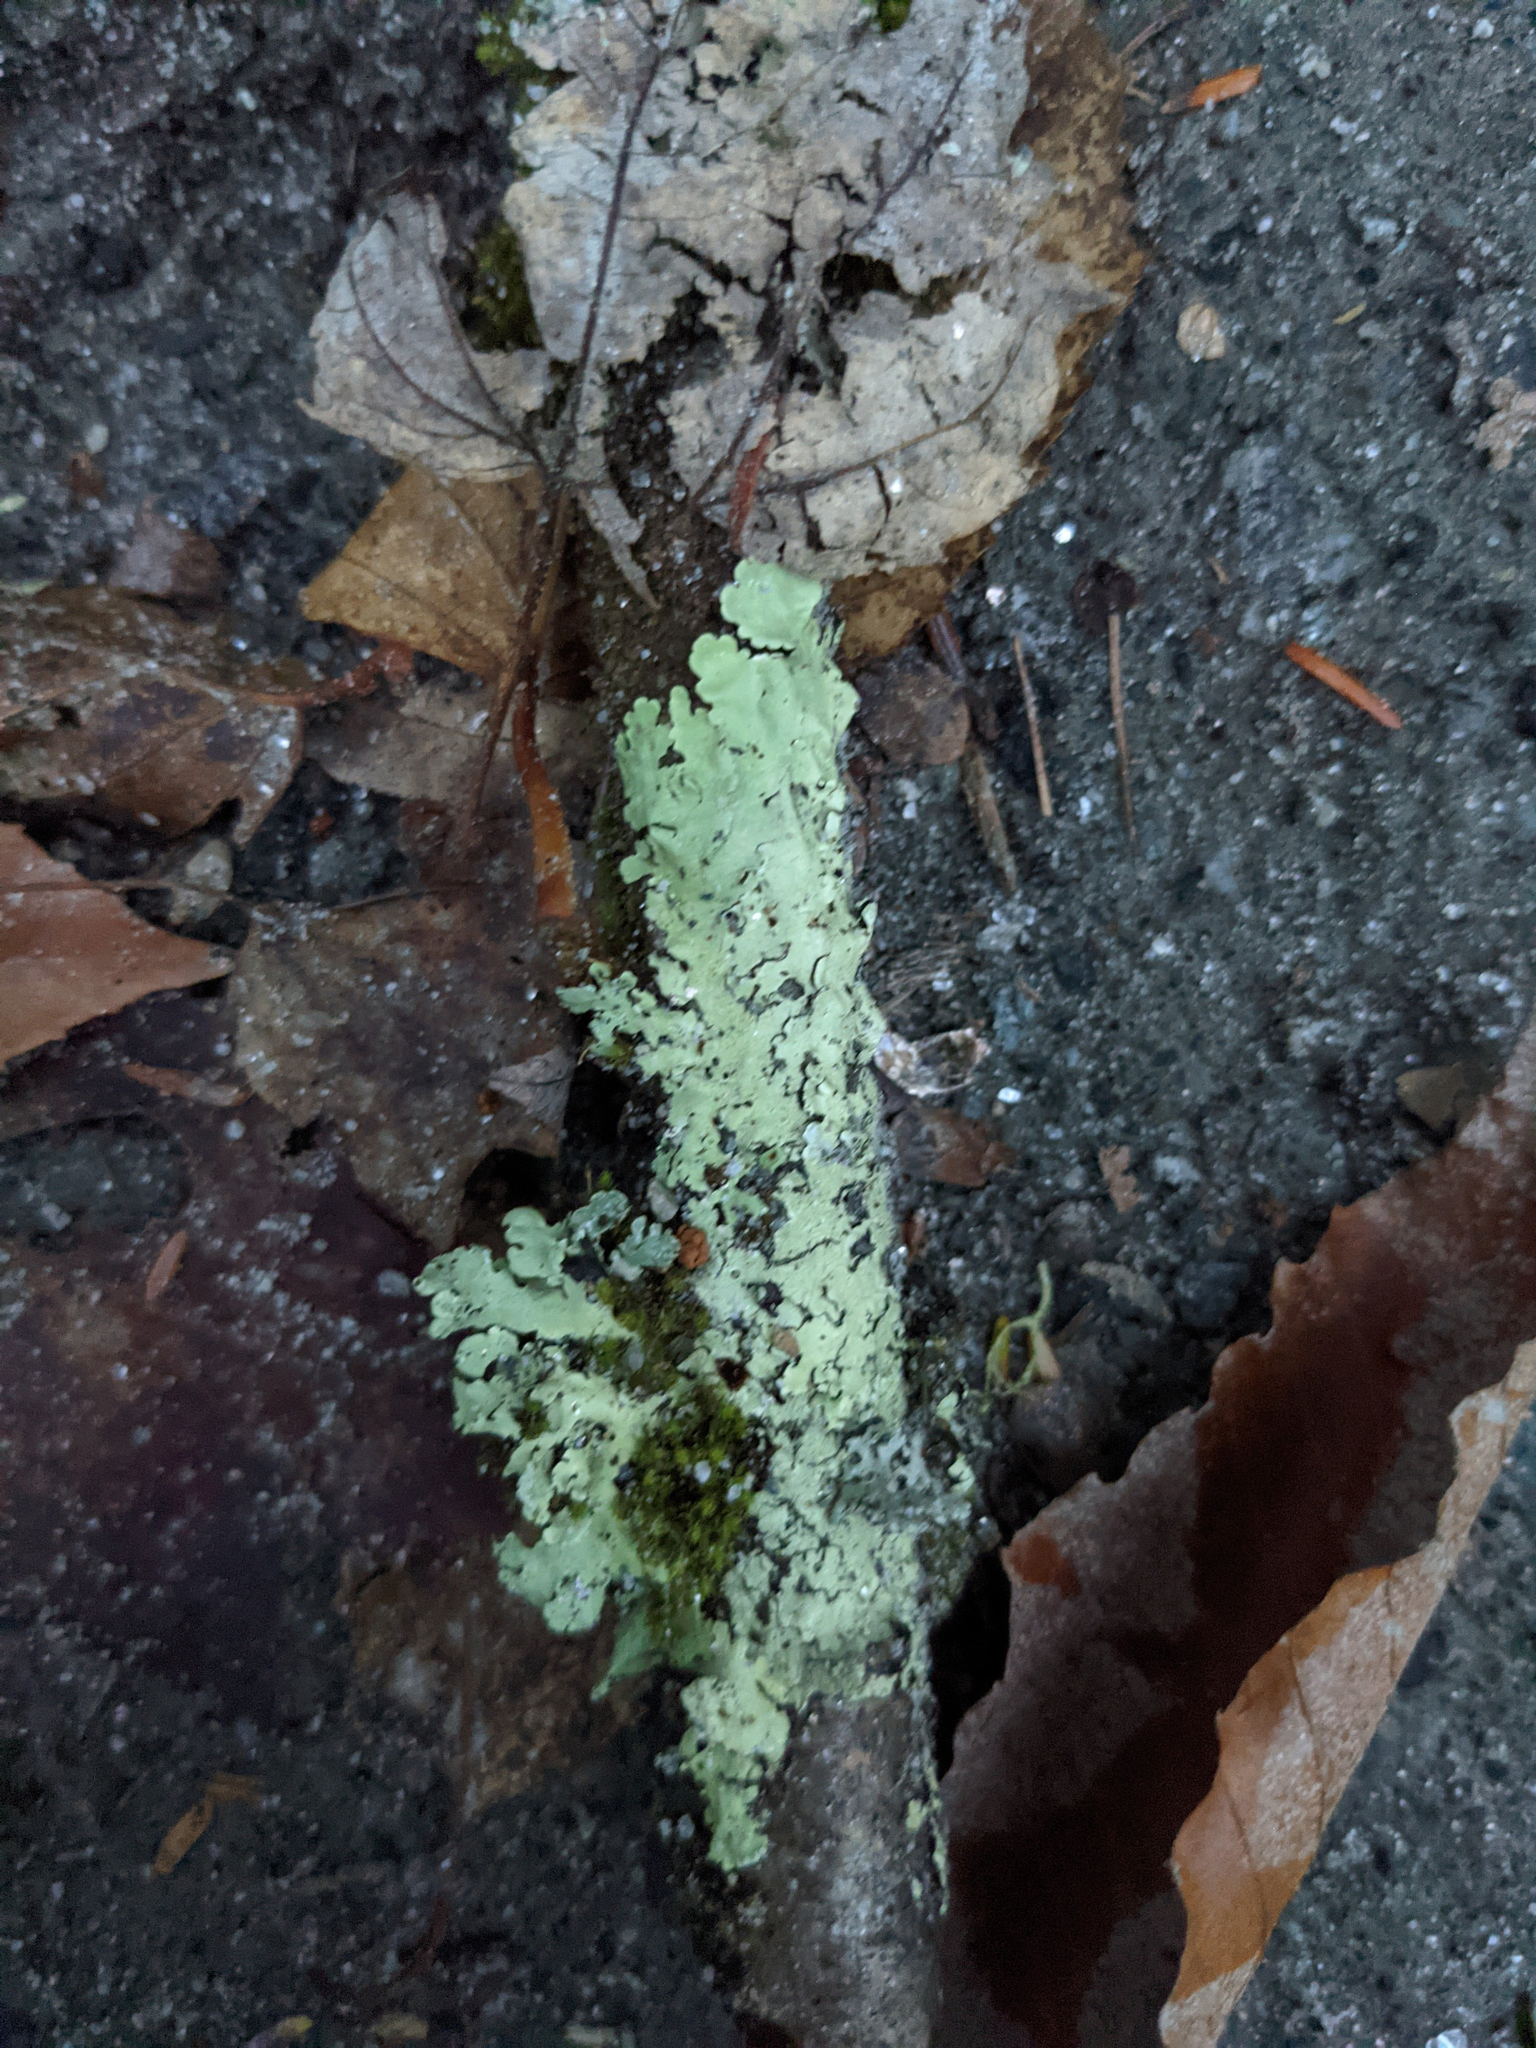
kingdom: Fungi
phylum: Ascomycota
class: Lecanoromycetes
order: Lecanorales
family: Parmeliaceae
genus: Flavoparmelia
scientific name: Flavoparmelia caperata
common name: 40-mile per hour lichen
